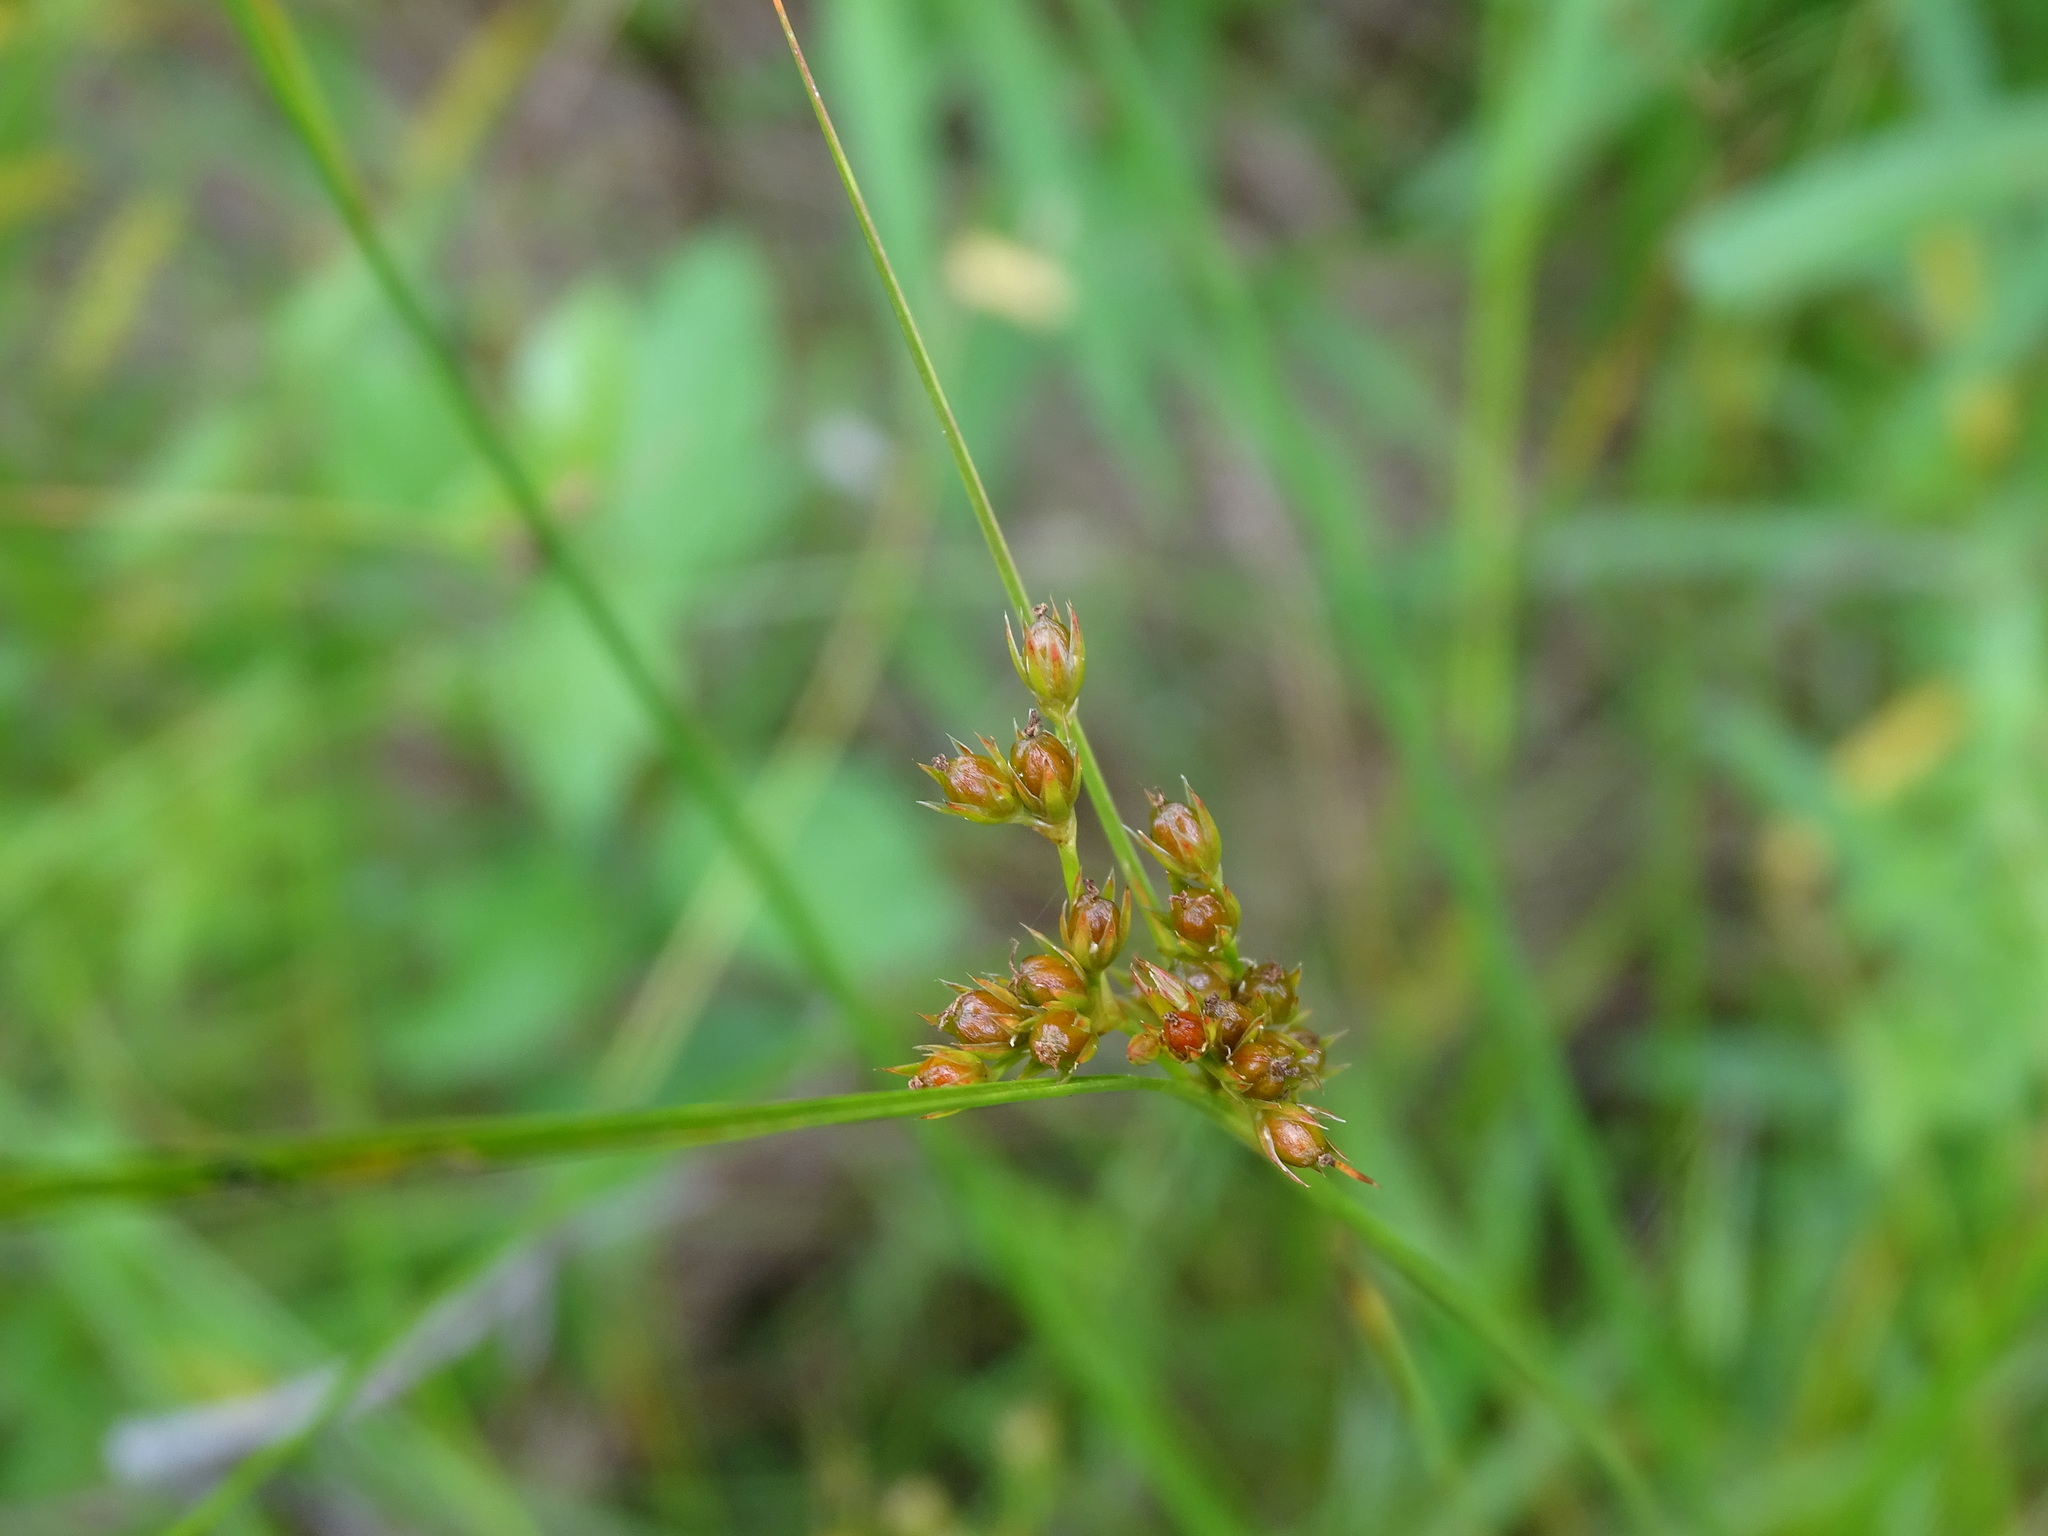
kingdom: Plantae
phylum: Tracheophyta
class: Liliopsida
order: Poales
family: Juncaceae
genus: Juncus
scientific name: Juncus tenuis
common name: Slender rush
